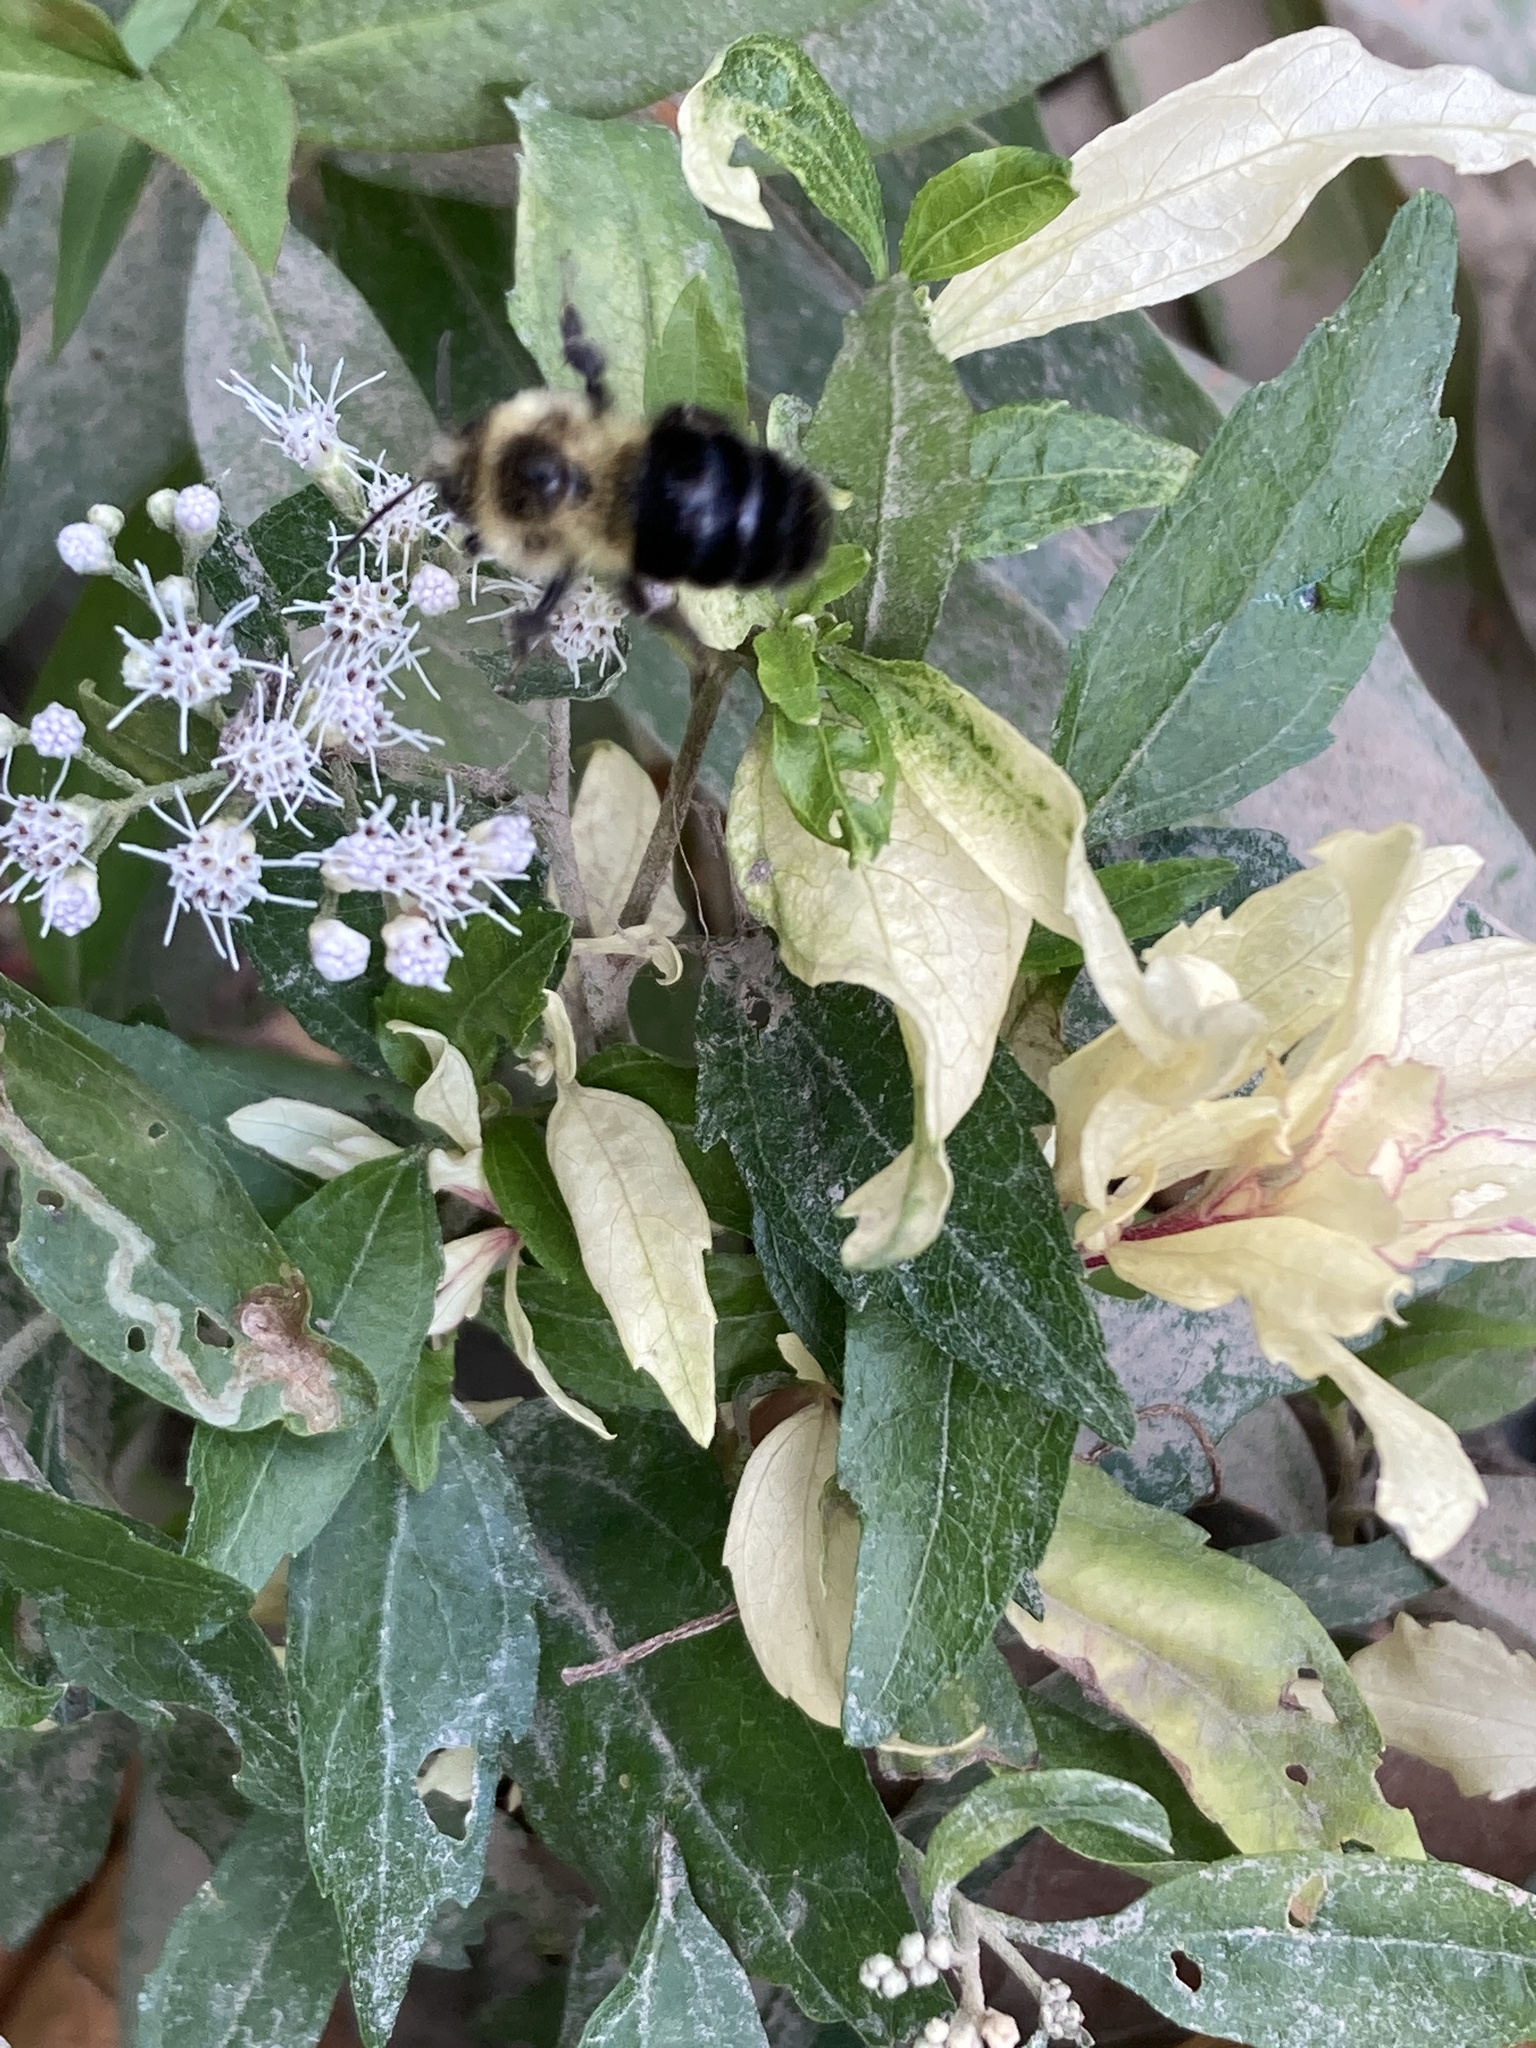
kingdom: Animalia
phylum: Arthropoda
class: Insecta
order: Hymenoptera
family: Apidae
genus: Bombus
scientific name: Bombus impatiens
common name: Common eastern bumble bee
